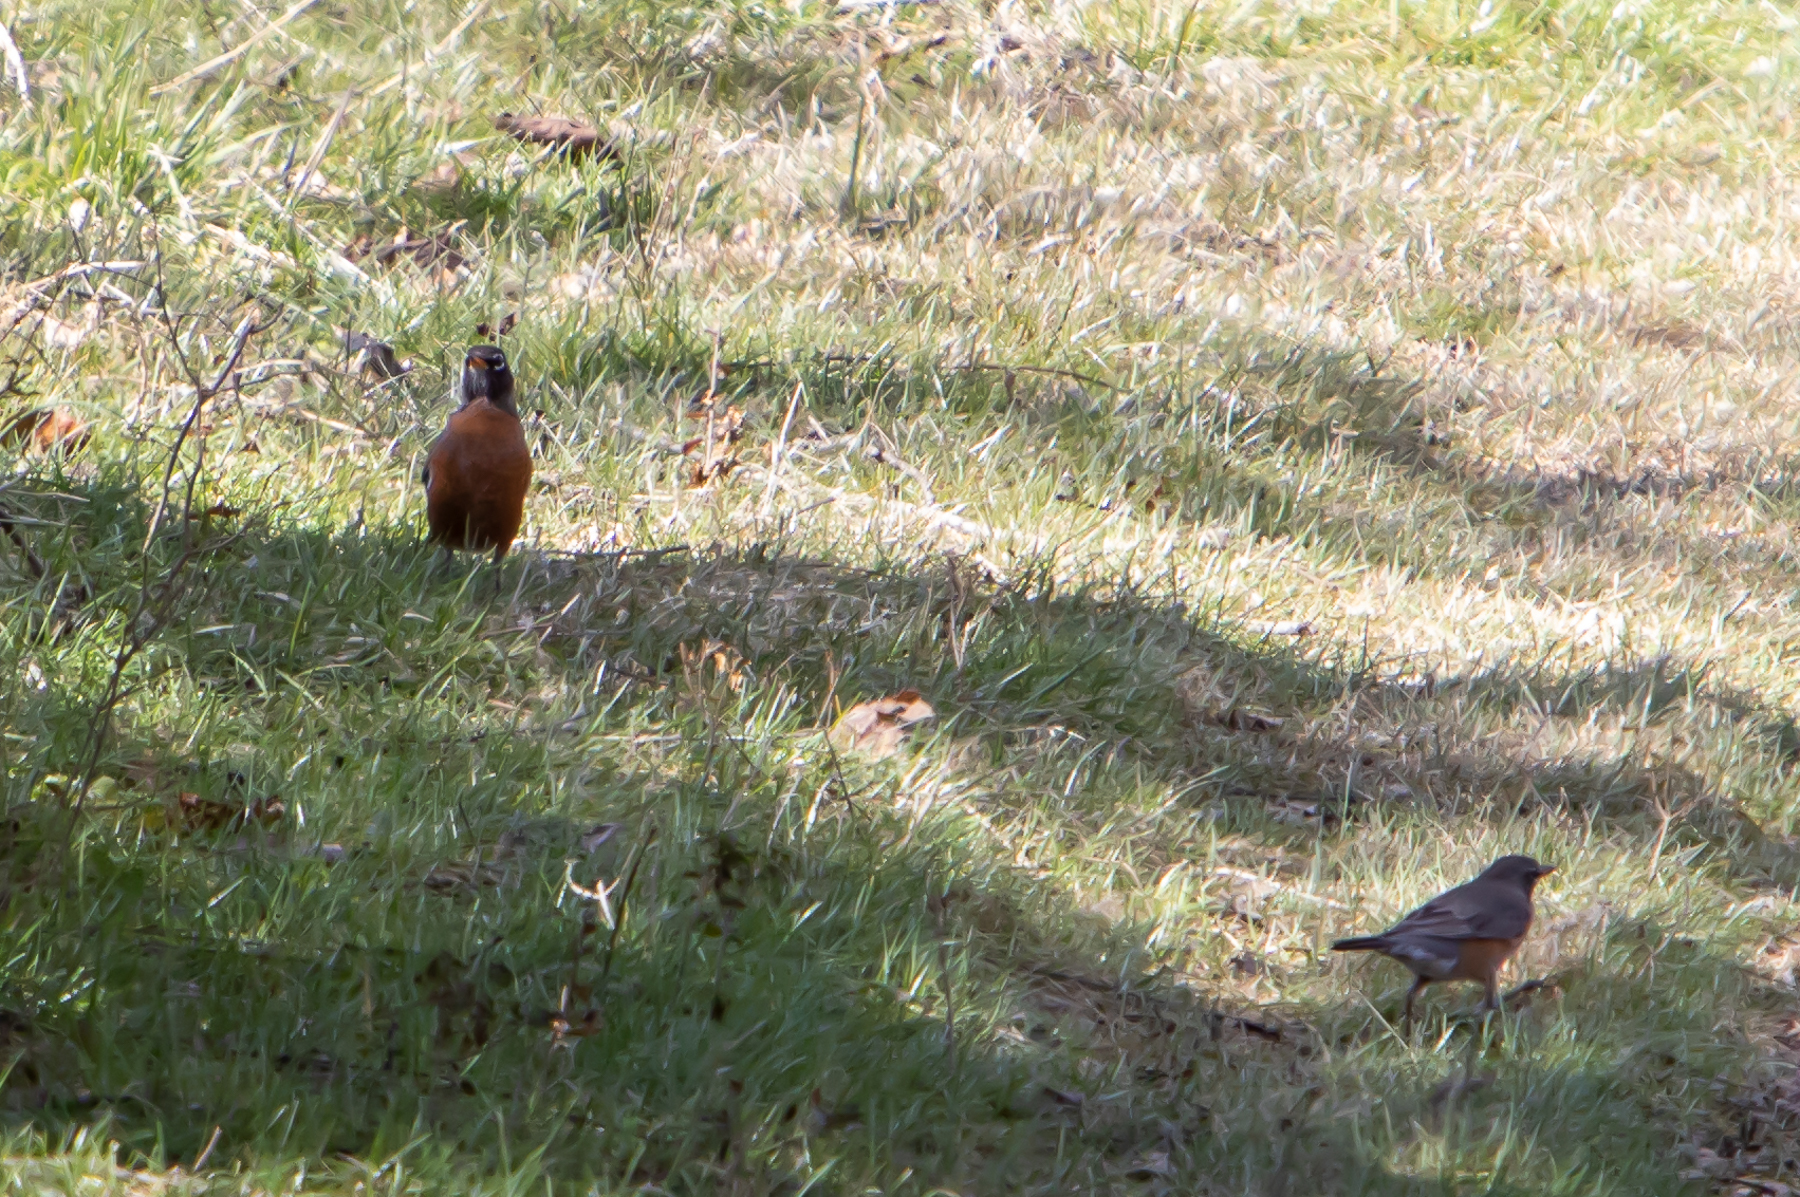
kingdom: Animalia
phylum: Chordata
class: Aves
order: Passeriformes
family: Turdidae
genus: Turdus
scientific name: Turdus migratorius
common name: American robin
